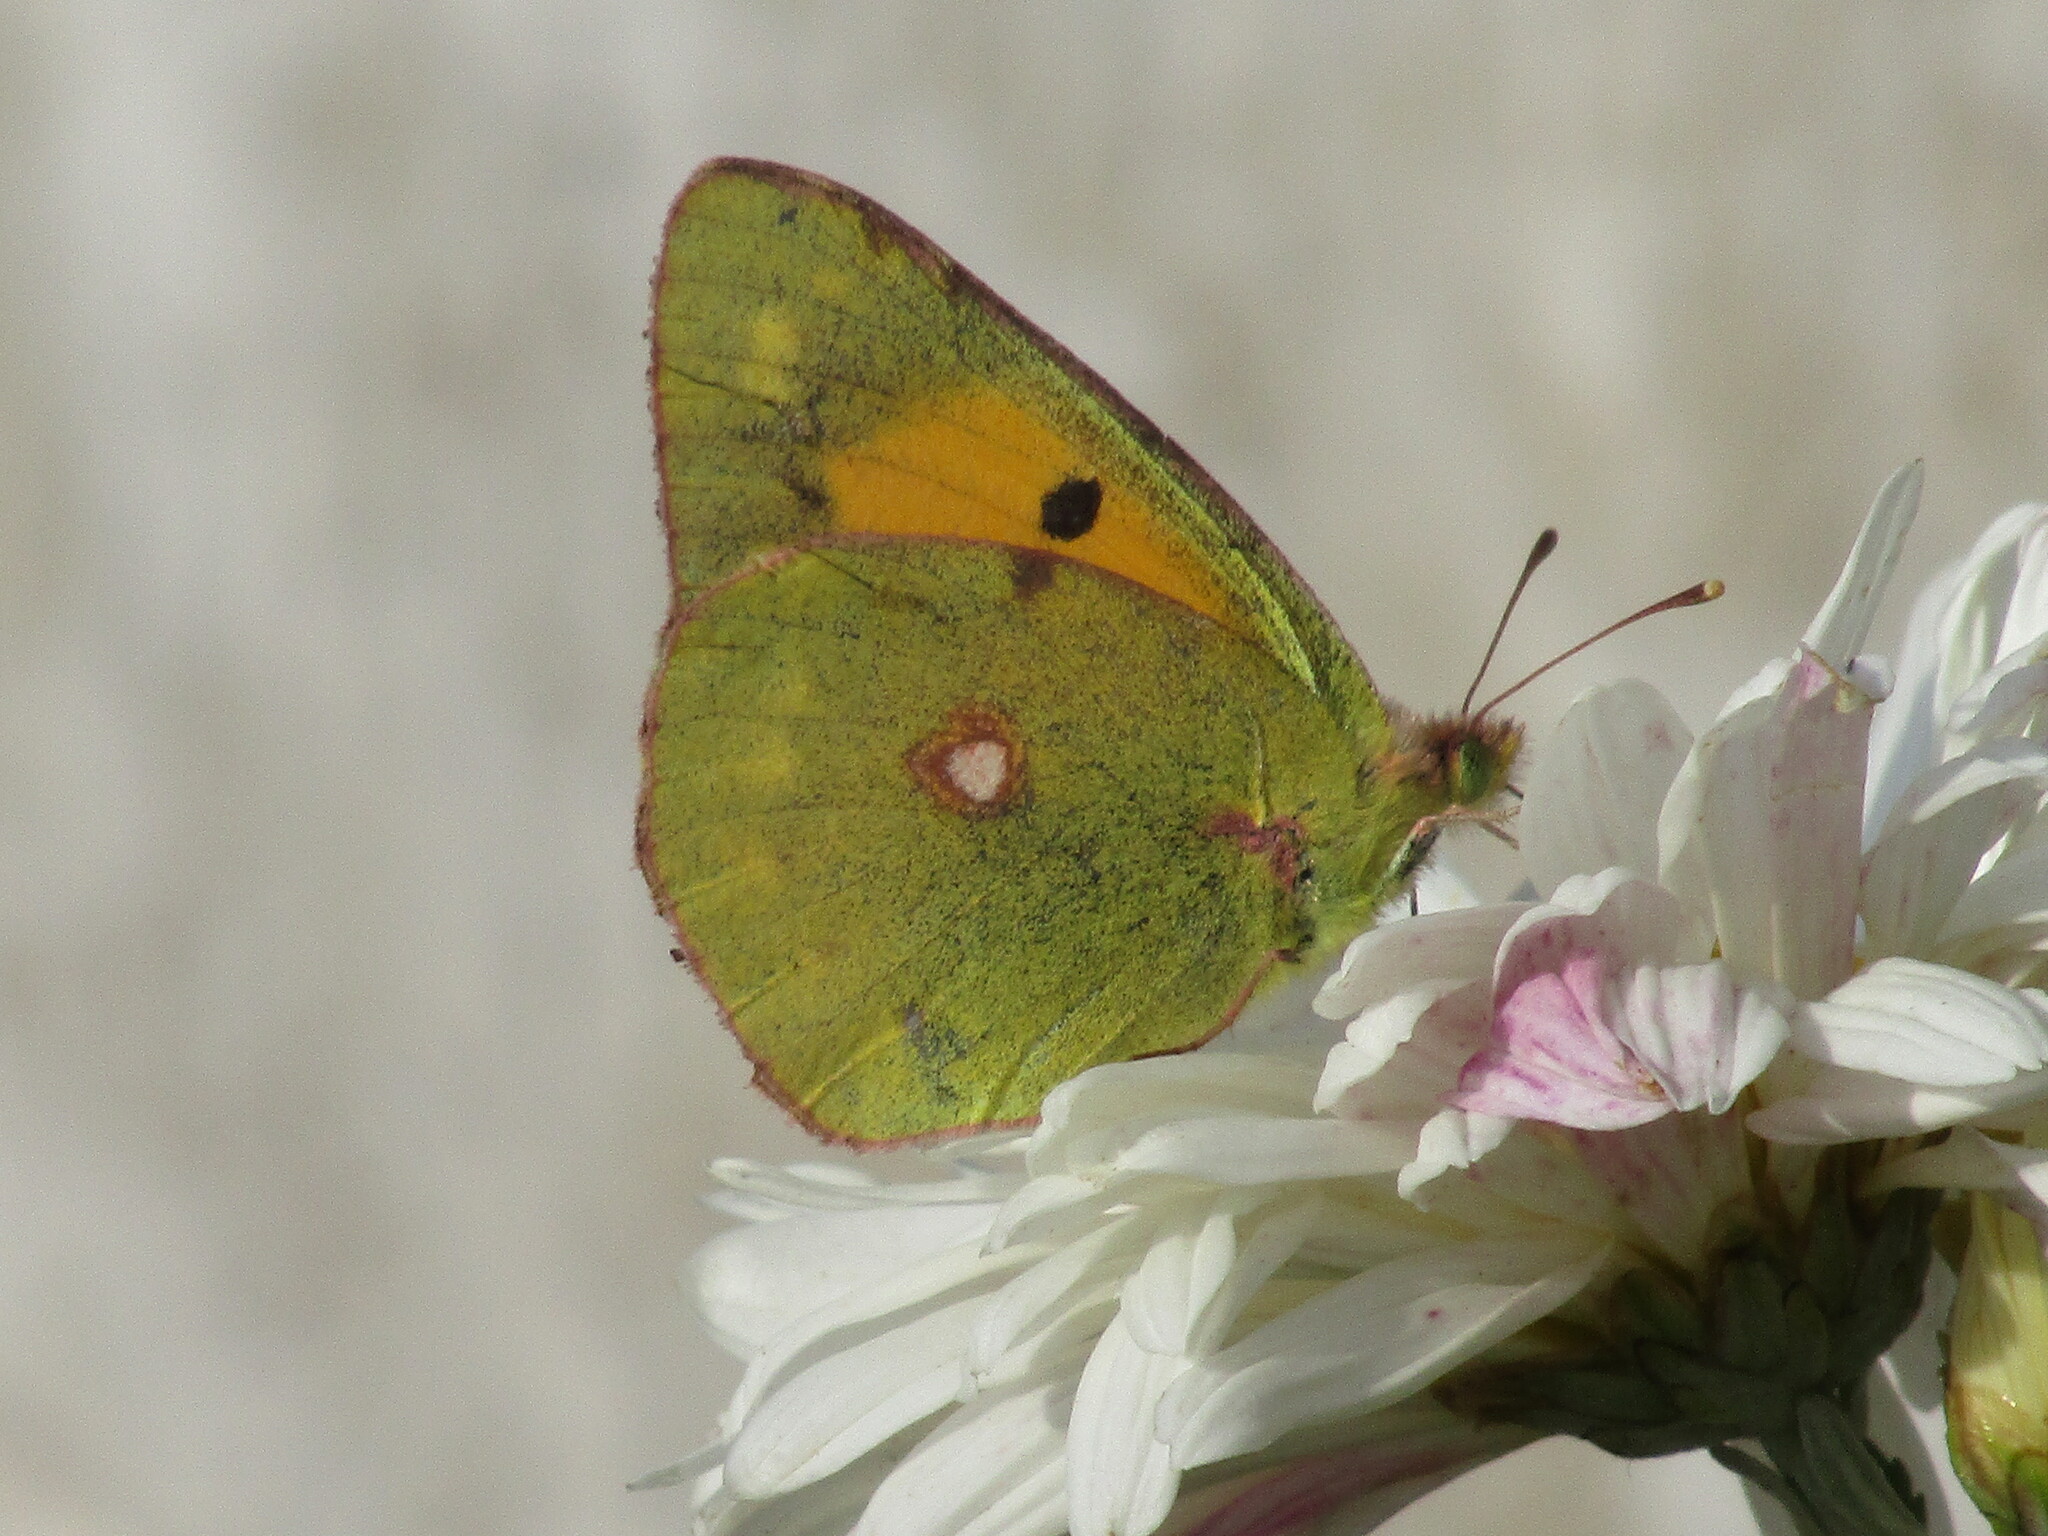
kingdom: Animalia
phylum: Arthropoda
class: Insecta
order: Lepidoptera
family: Pieridae
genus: Colias
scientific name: Colias croceus
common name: Clouded yellow
